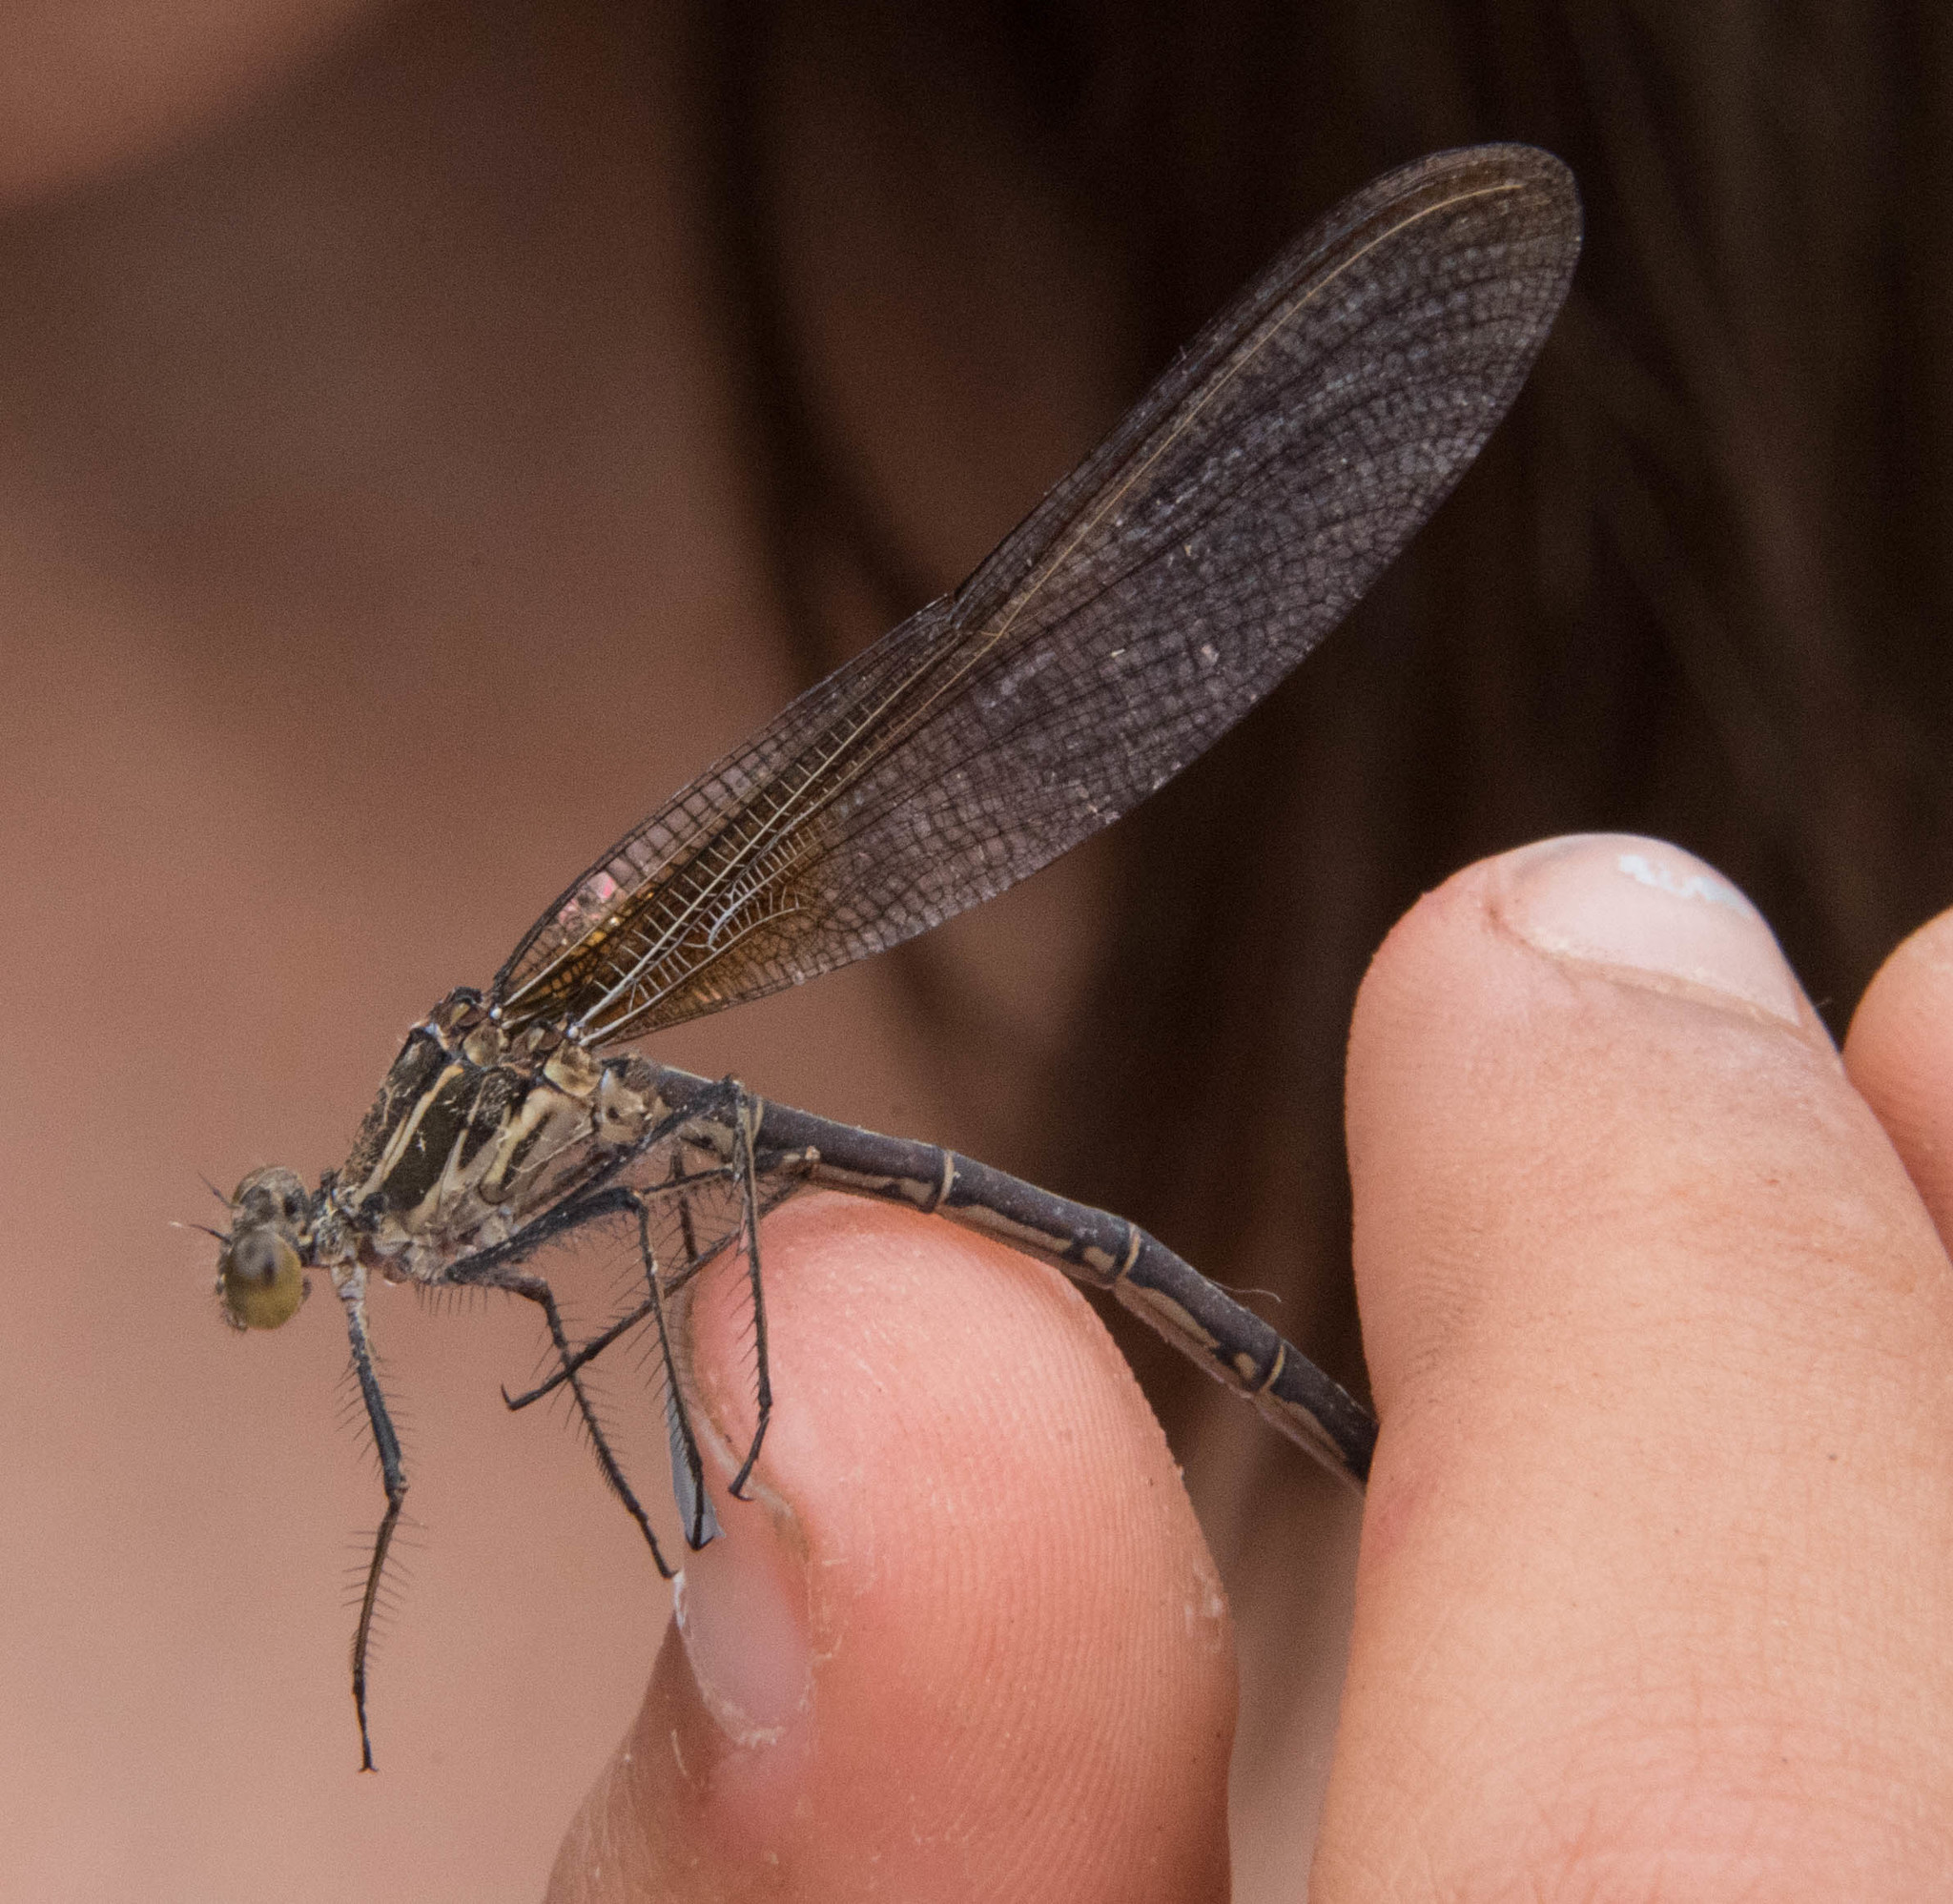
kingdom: Animalia
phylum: Arthropoda
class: Insecta
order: Odonata
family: Calopterygidae
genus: Hetaerina
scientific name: Hetaerina americana
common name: American rubyspot
